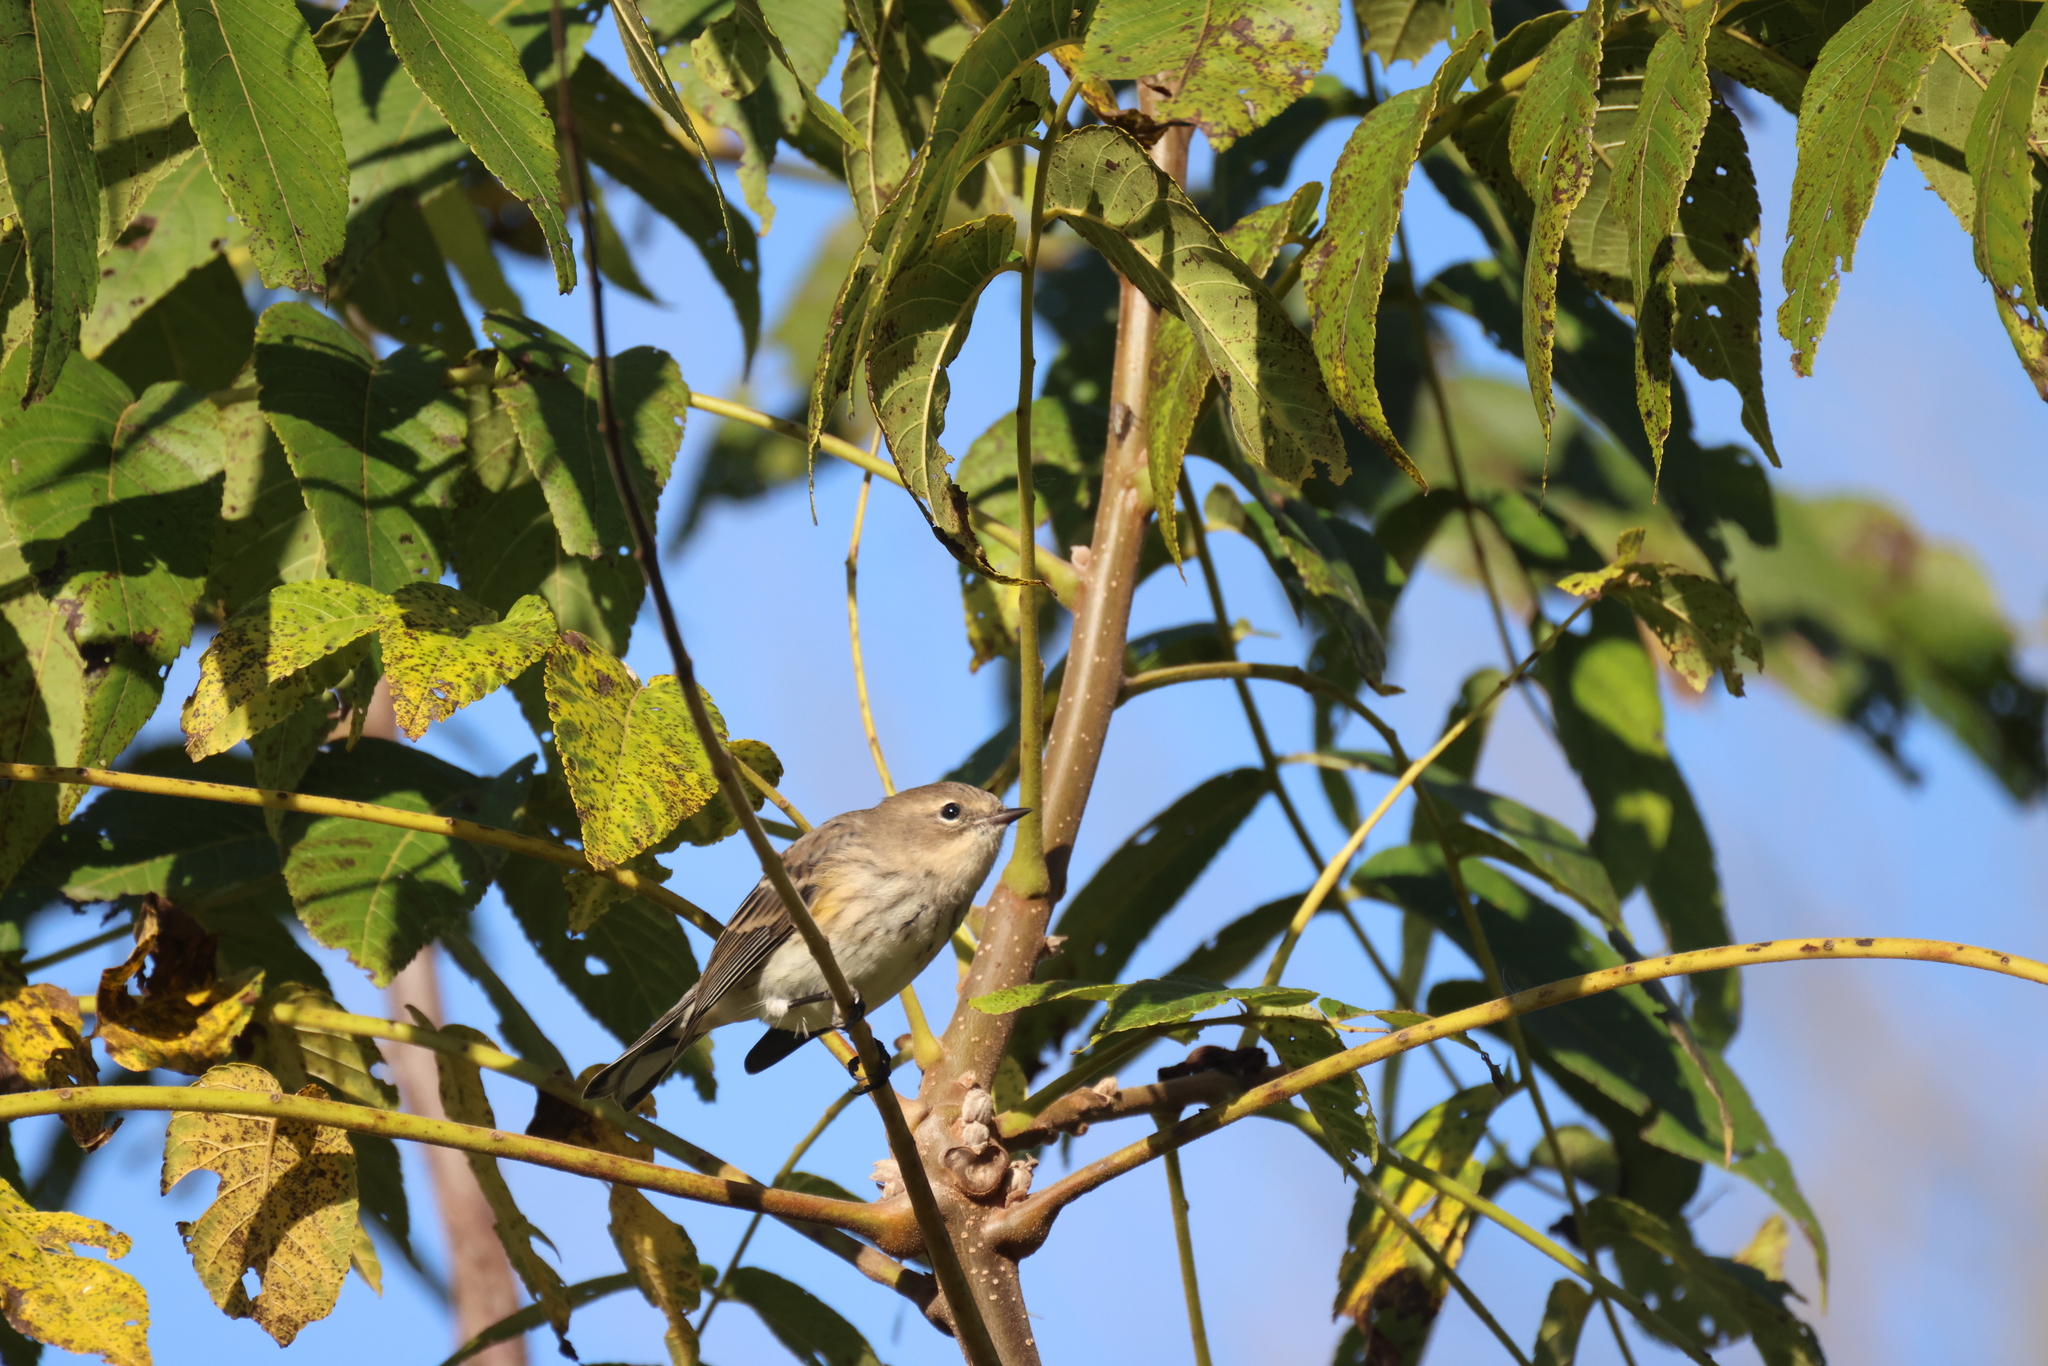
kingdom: Animalia
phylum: Chordata
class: Aves
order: Passeriformes
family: Parulidae
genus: Setophaga
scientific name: Setophaga coronata
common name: Myrtle warbler
